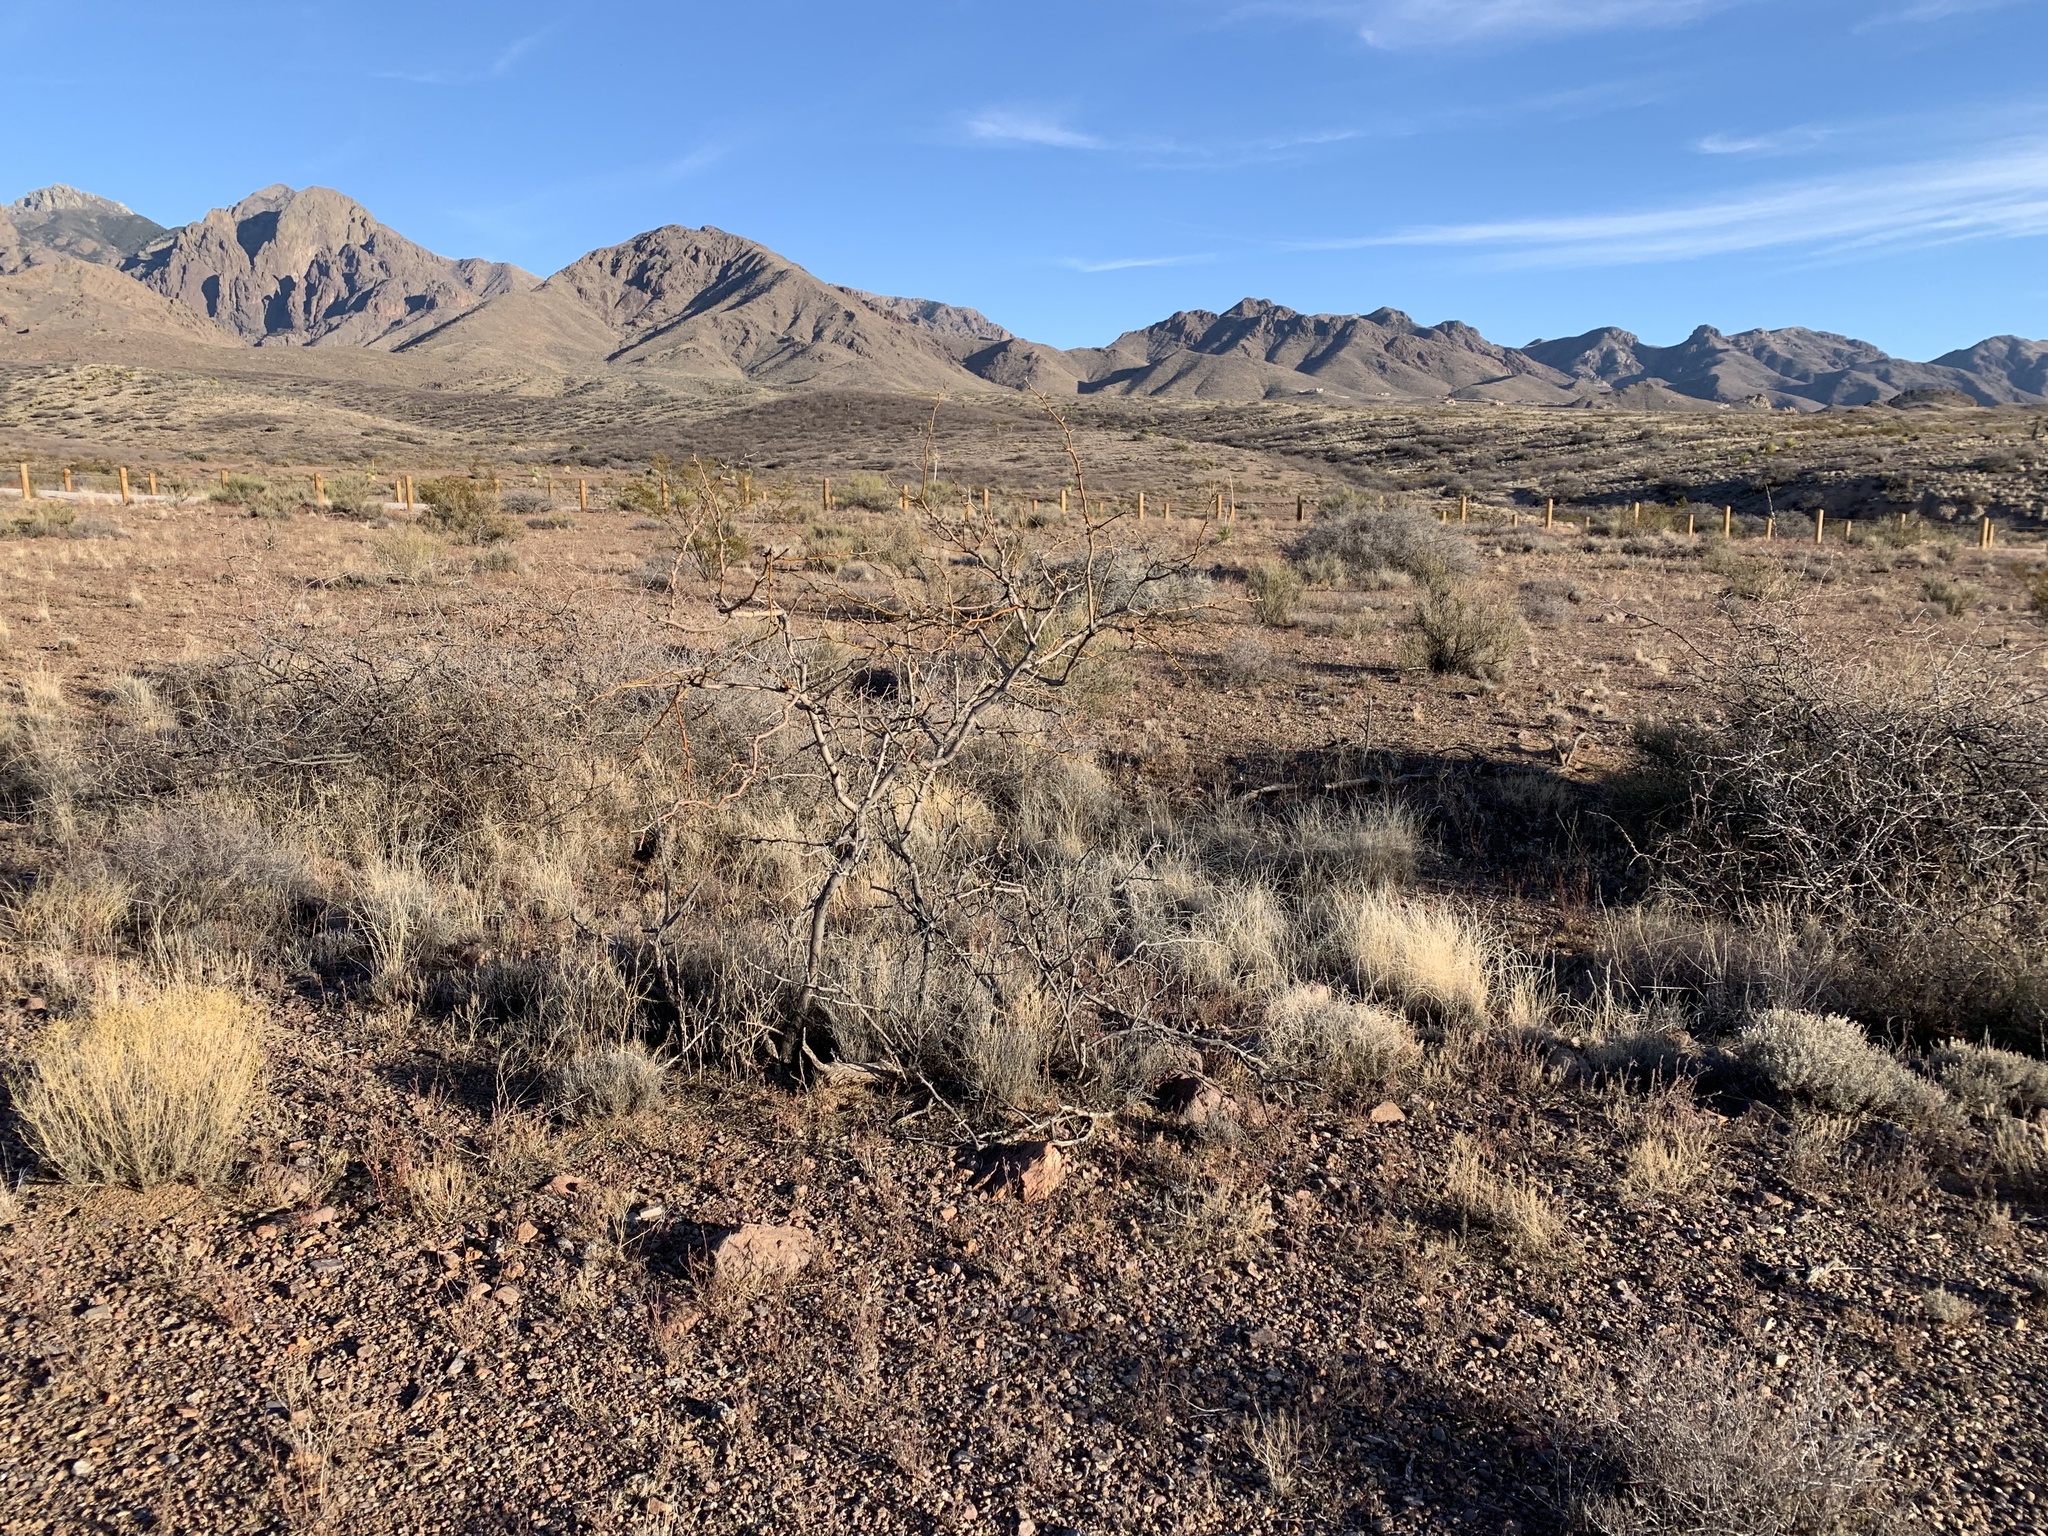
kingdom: Plantae
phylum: Tracheophyta
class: Magnoliopsida
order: Fabales
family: Fabaceae
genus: Prosopis
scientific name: Prosopis glandulosa
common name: Honey mesquite
